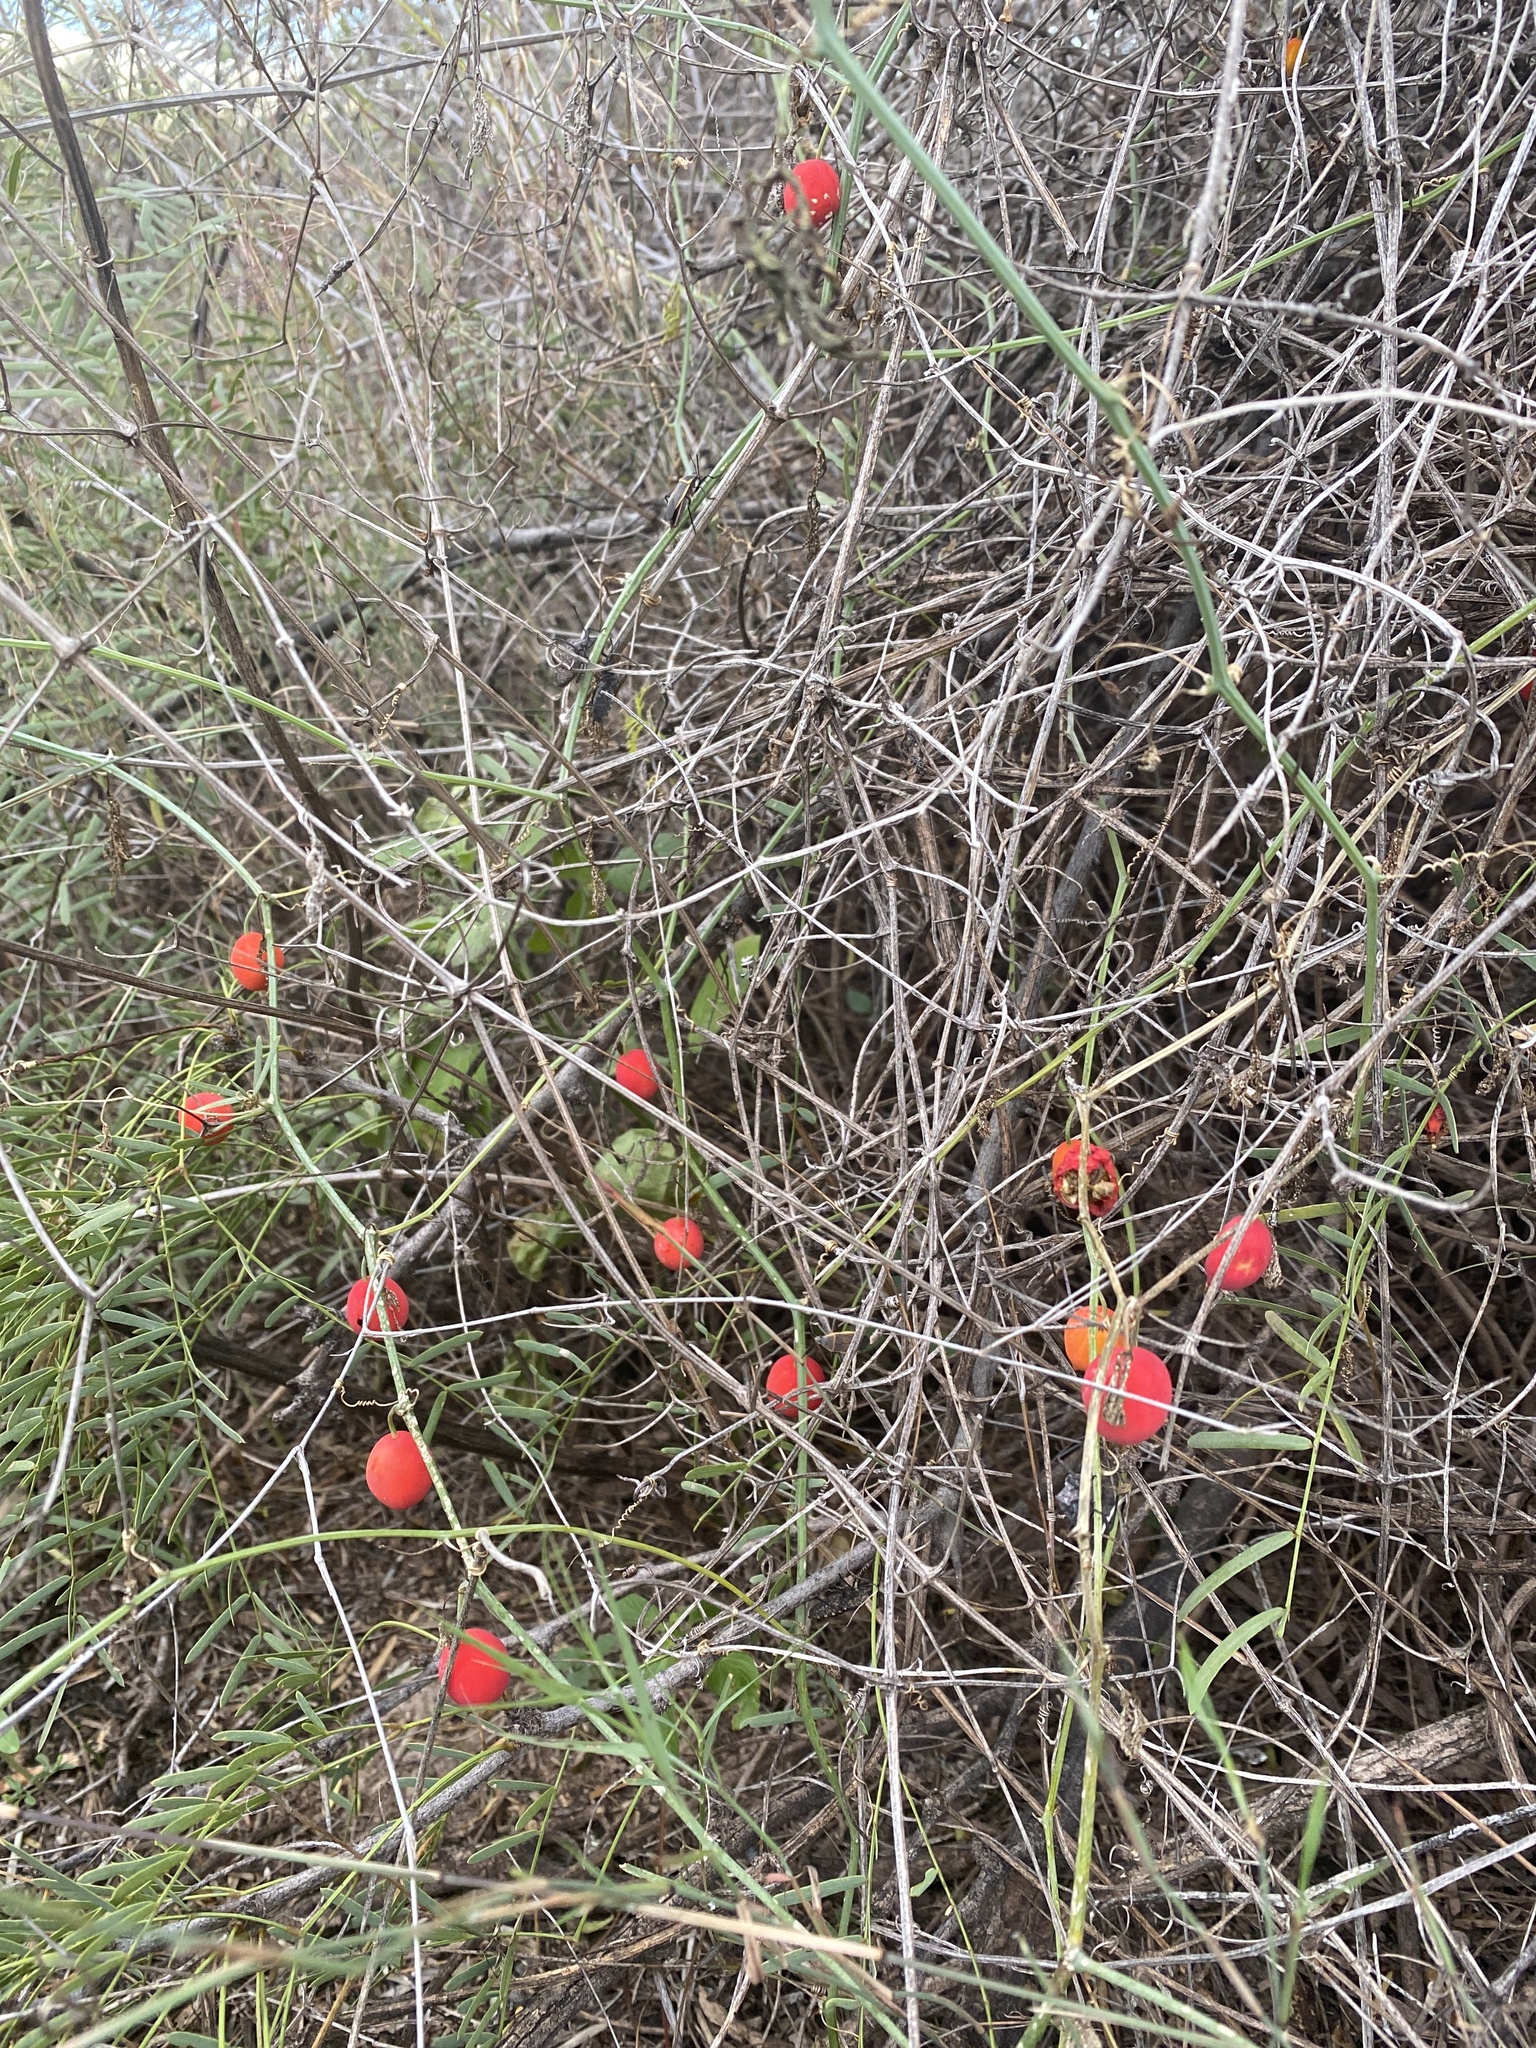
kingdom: Plantae
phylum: Tracheophyta
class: Magnoliopsida
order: Cucurbitales
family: Cucurbitaceae
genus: Ibervillea
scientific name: Ibervillea tenuisecta
